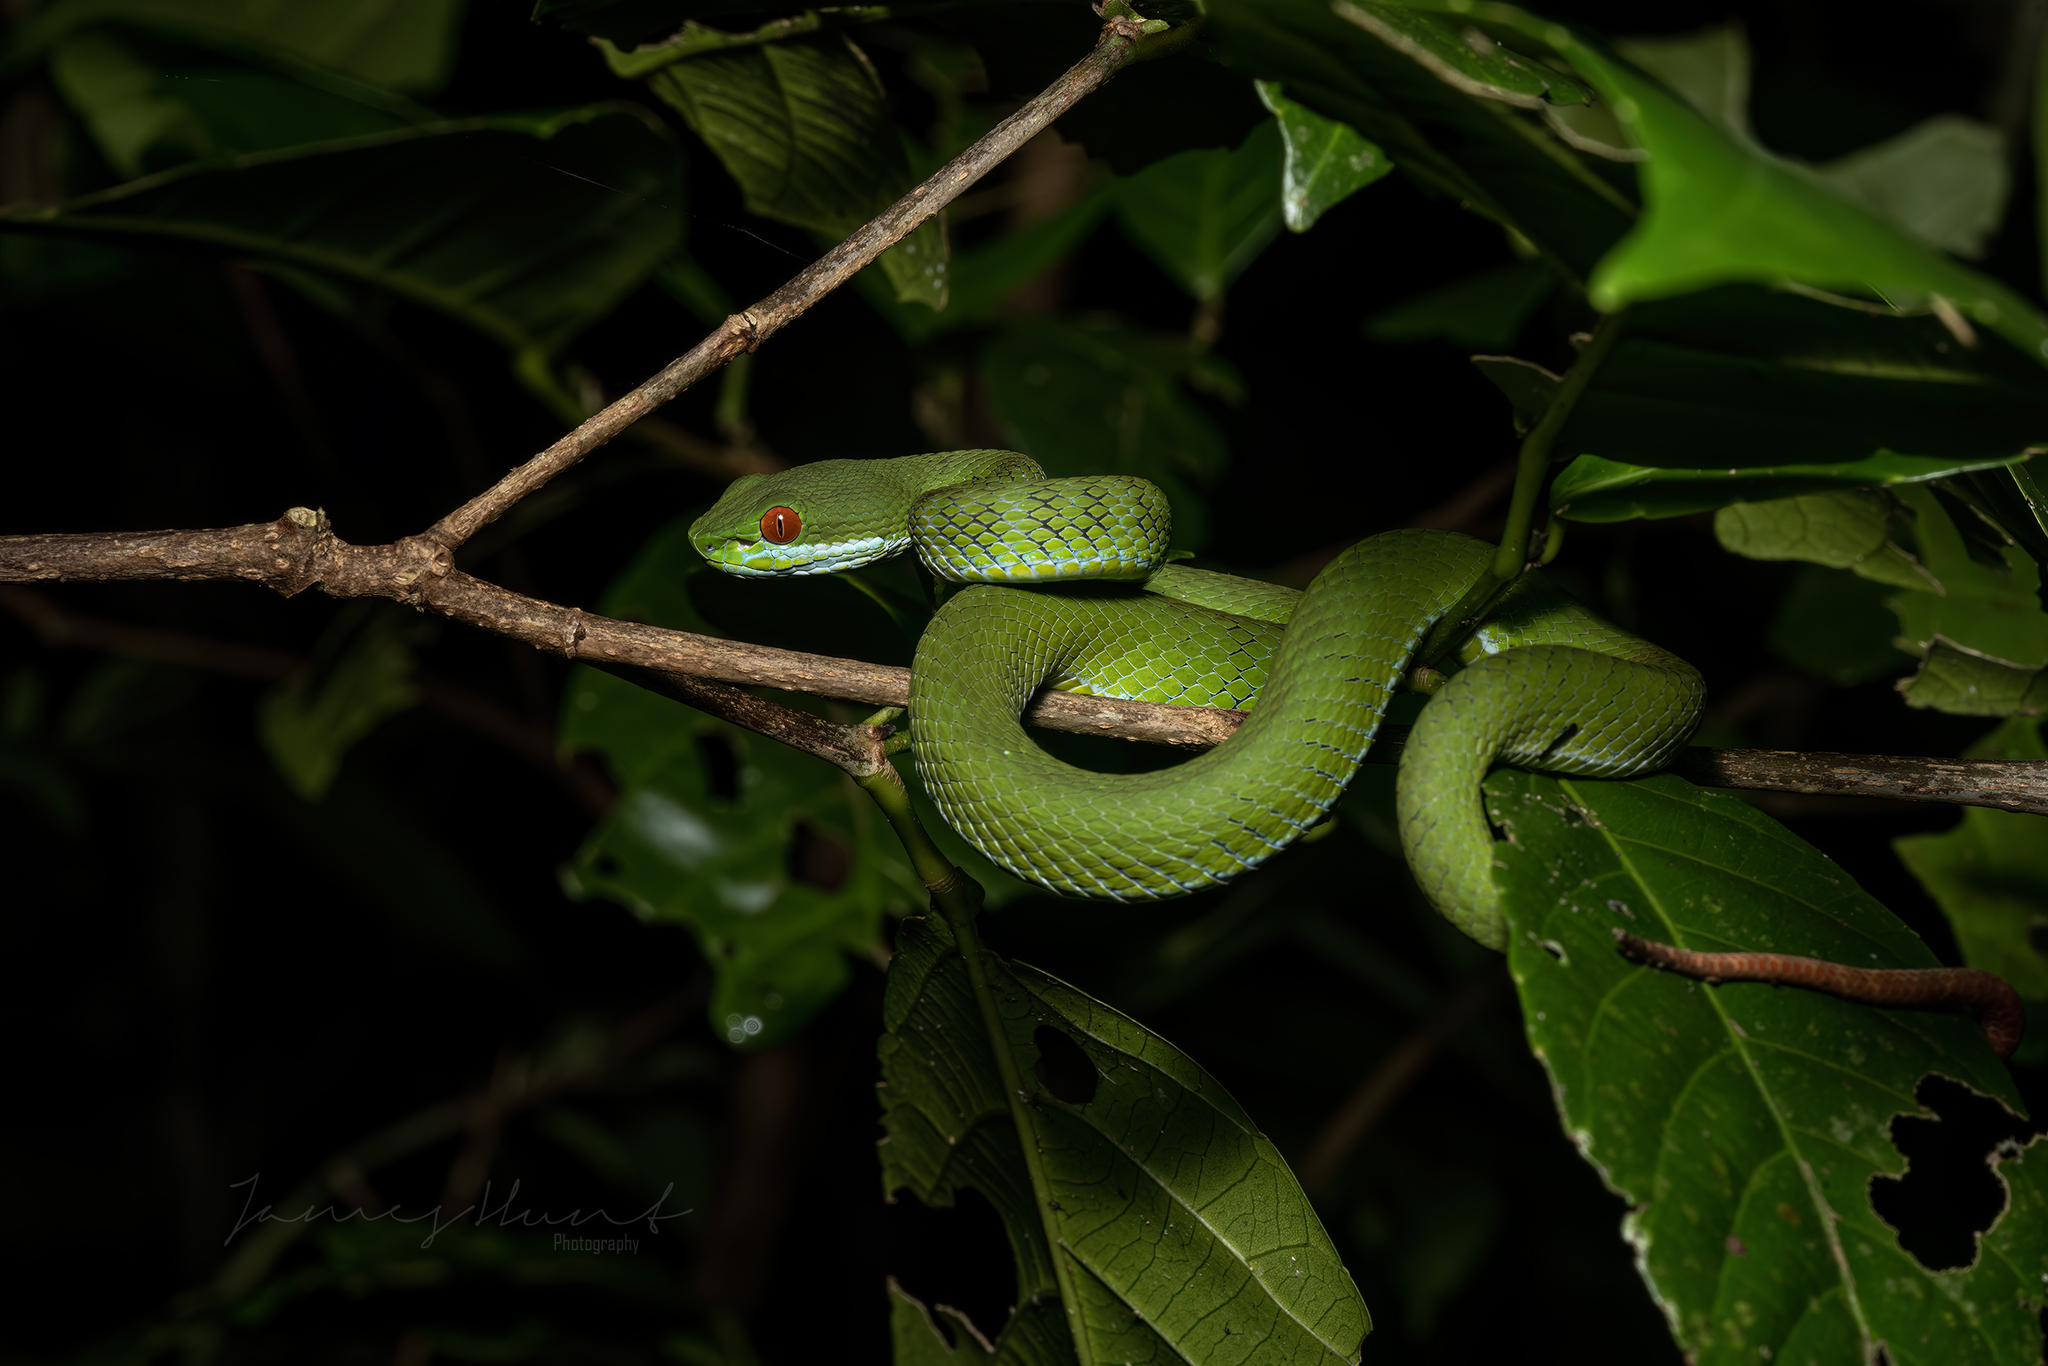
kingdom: Animalia
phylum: Chordata
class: Squamata
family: Viperidae
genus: Craspedocephalus
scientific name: Craspedocephalus rubeus
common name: Ruby-eyed green pitviper
